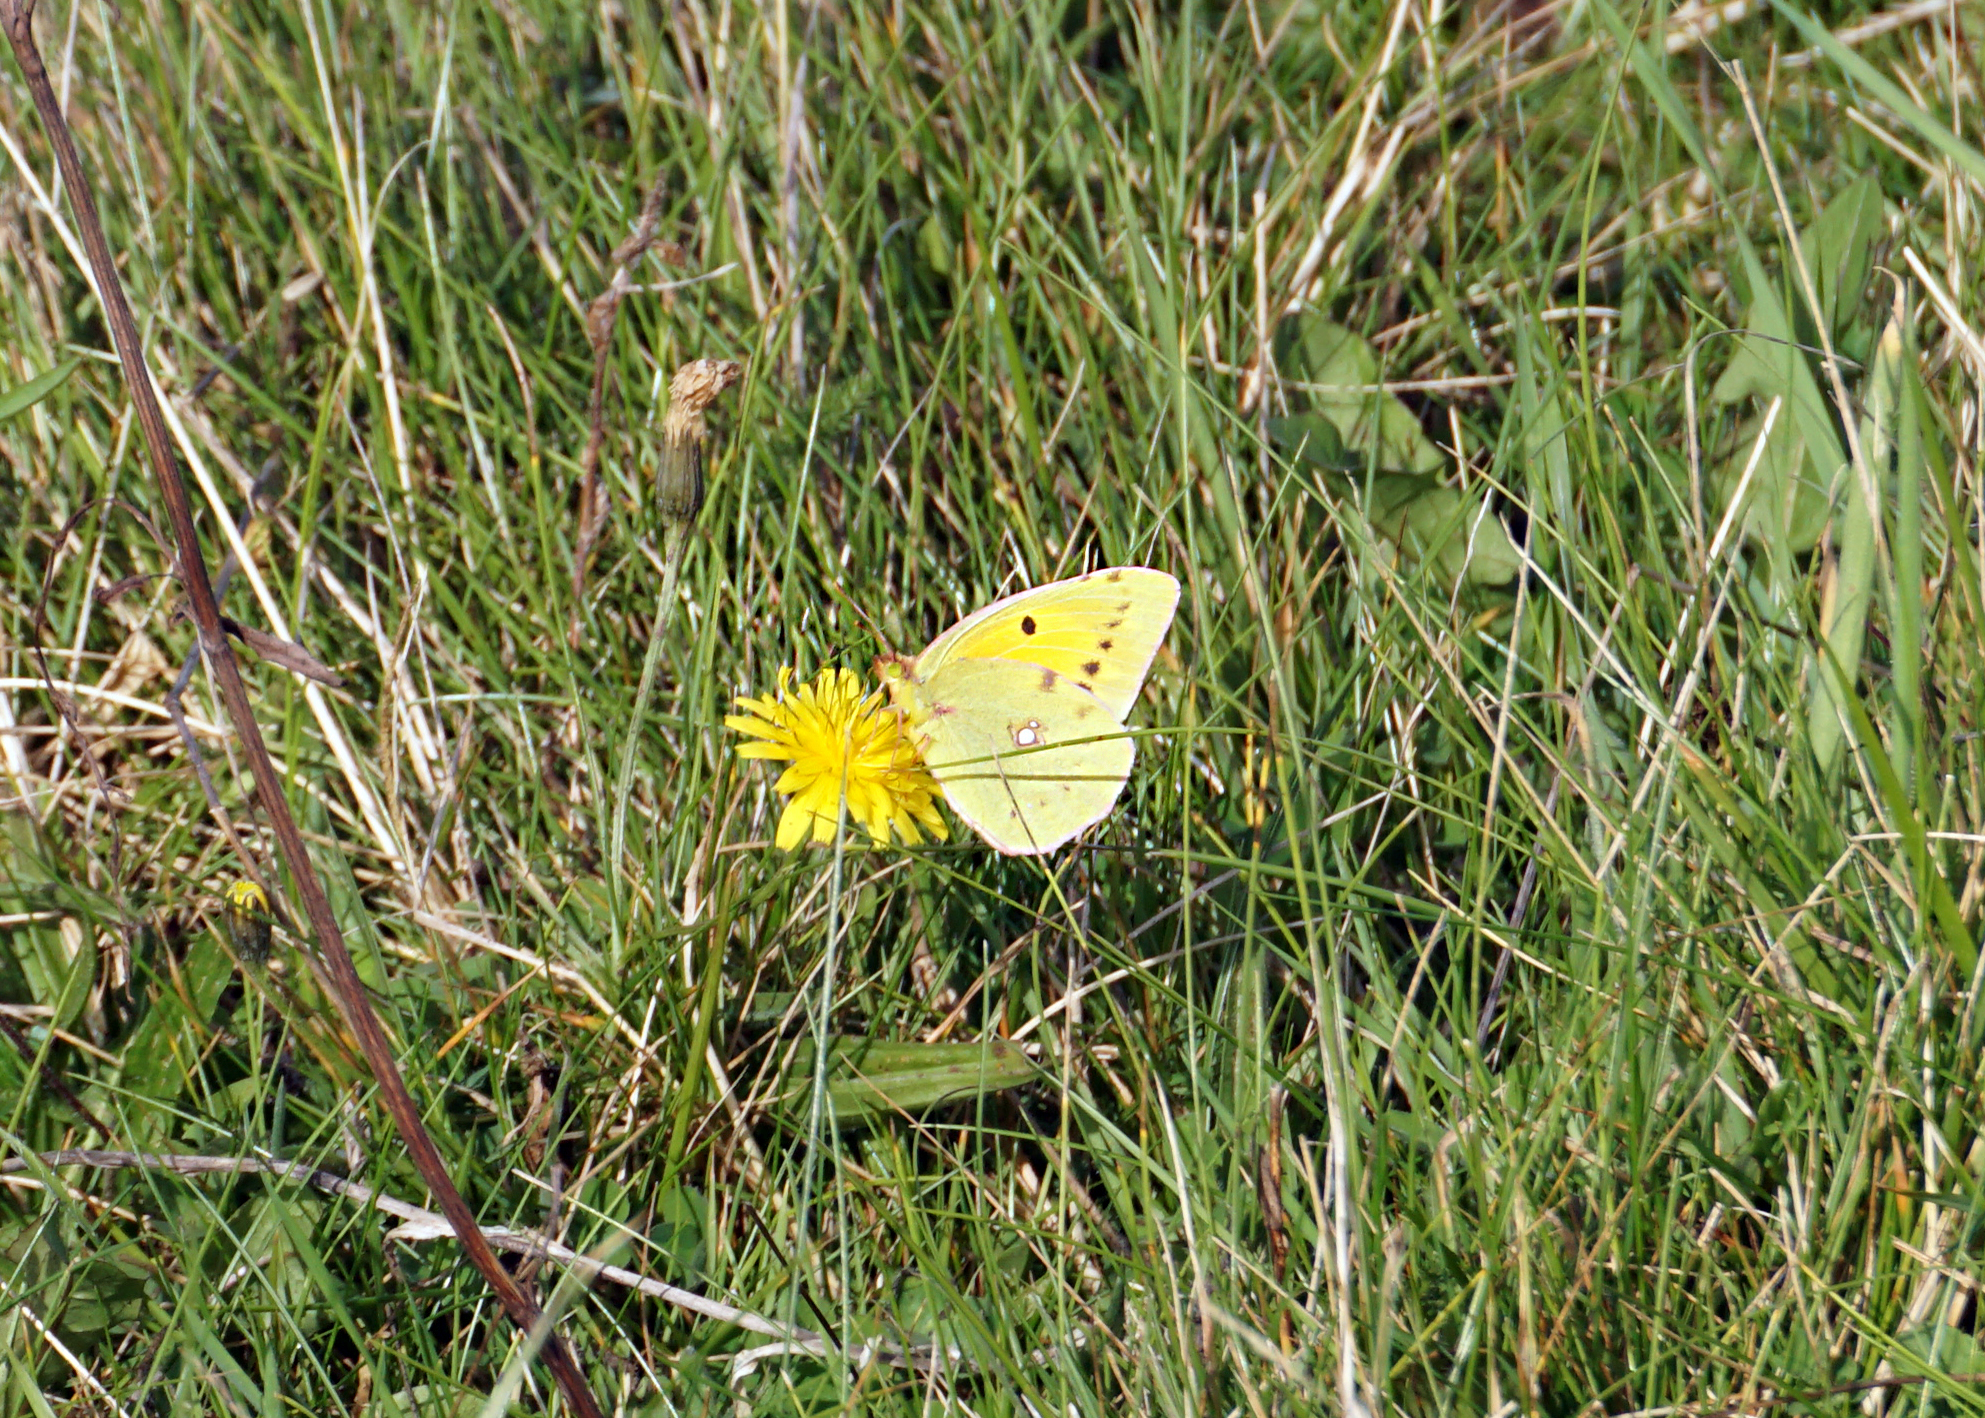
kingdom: Animalia
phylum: Arthropoda
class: Insecta
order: Lepidoptera
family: Pieridae
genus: Colias
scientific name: Colias croceus
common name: Clouded yellow
